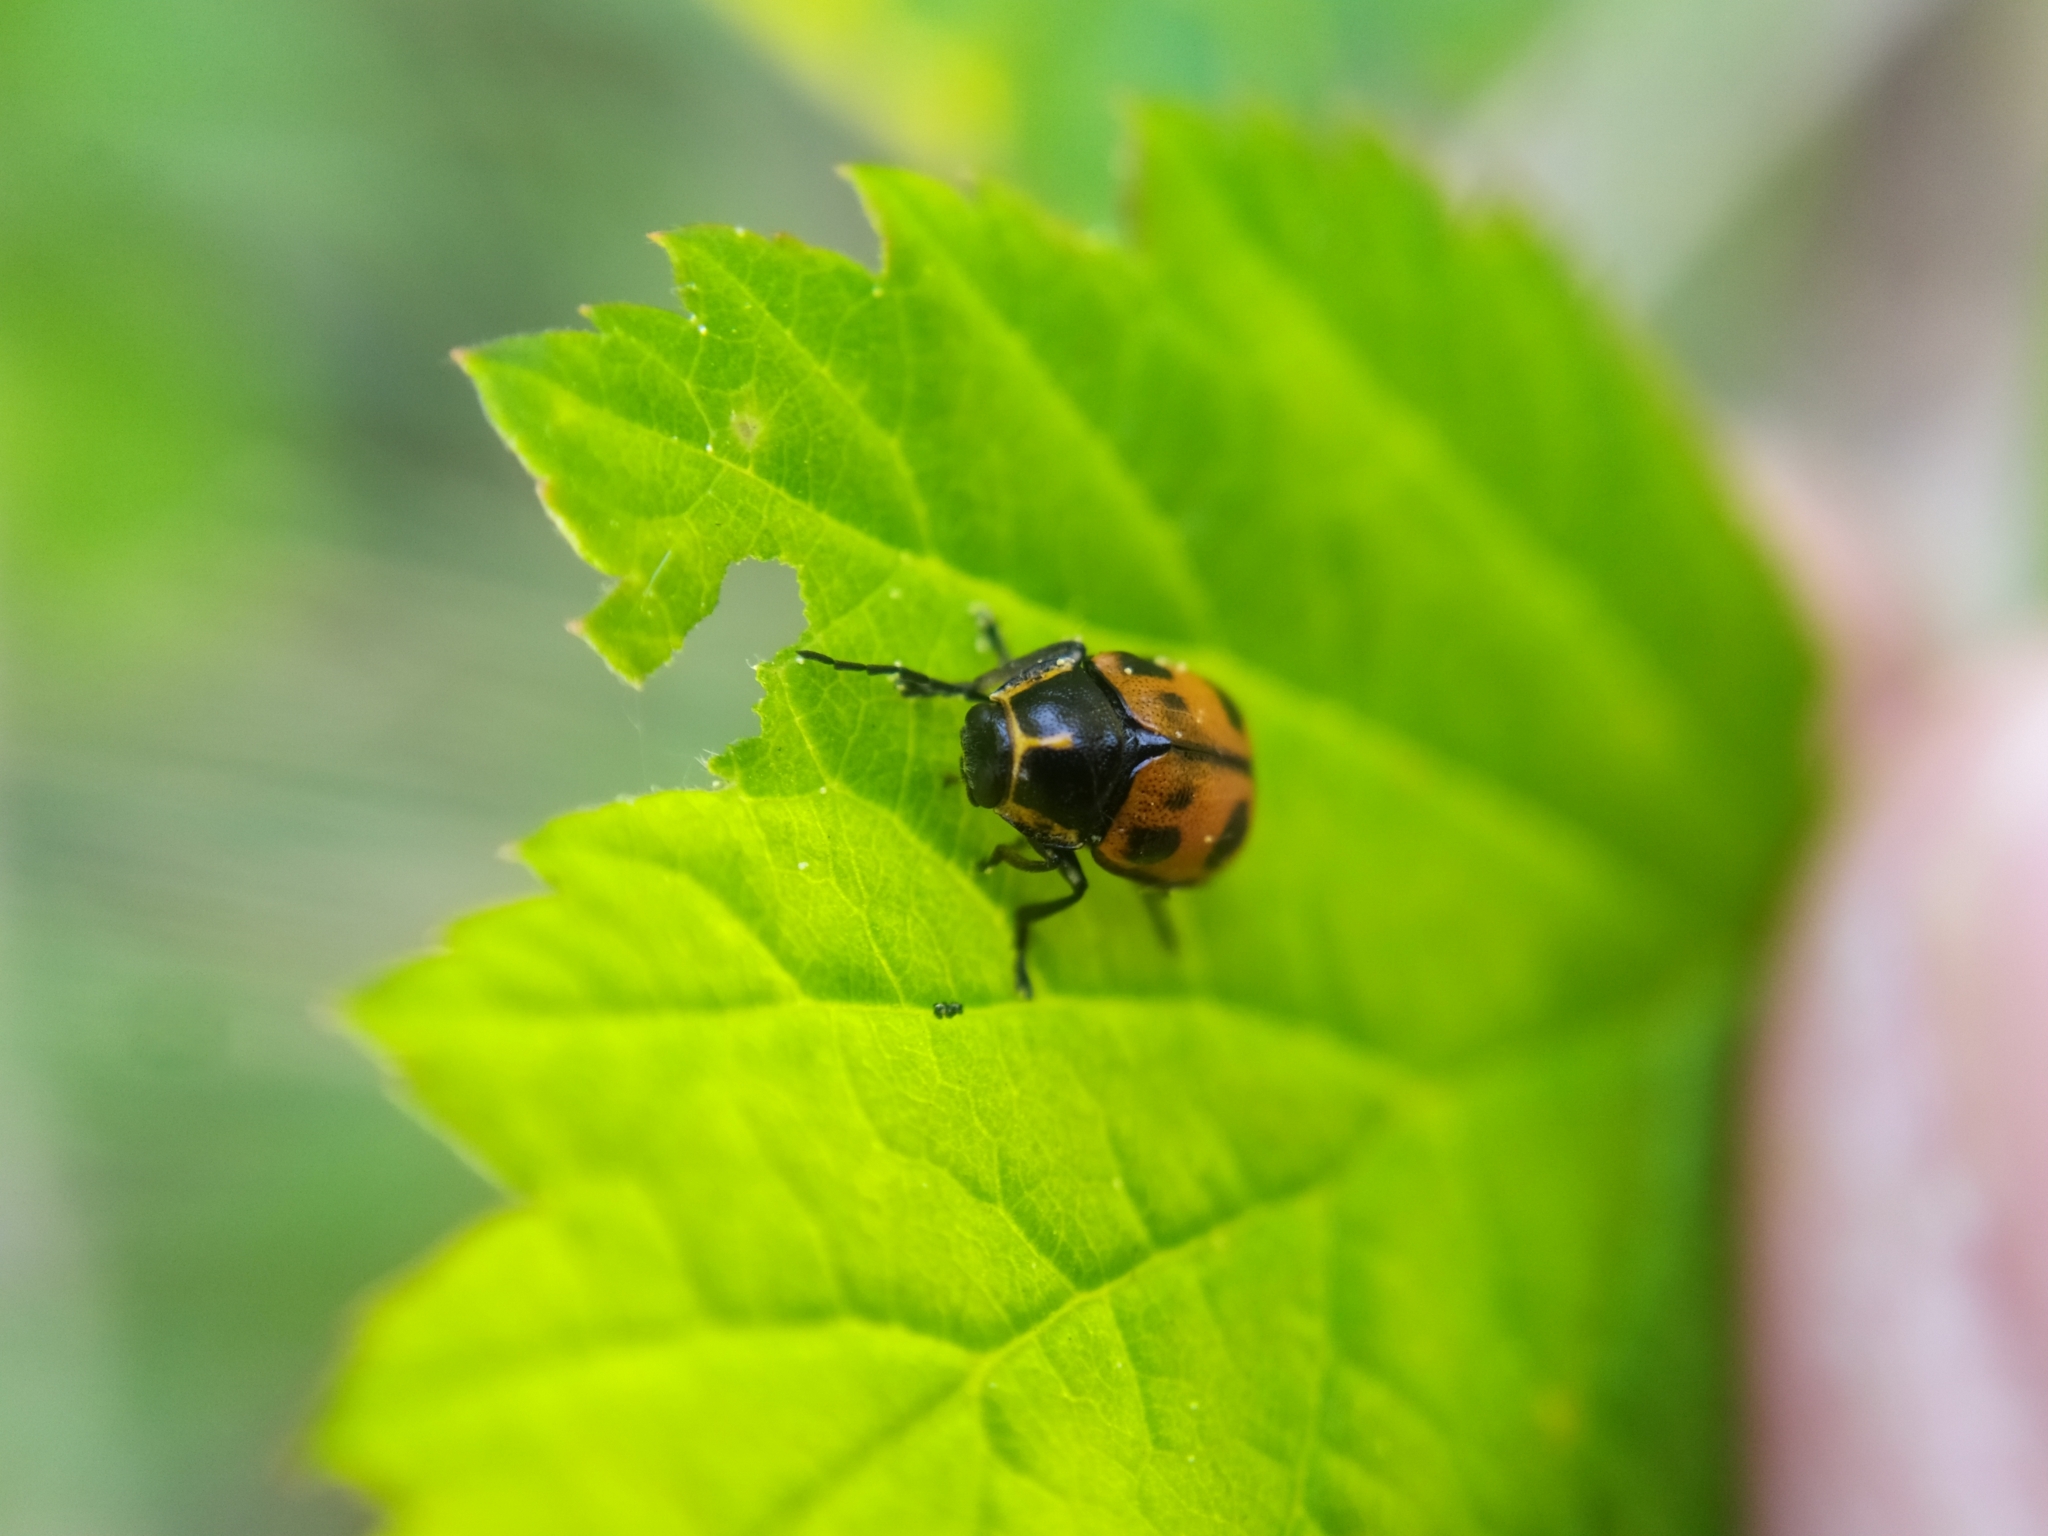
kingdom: Animalia
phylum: Arthropoda
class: Insecta
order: Coleoptera
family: Chrysomelidae
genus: Cryptocephalus
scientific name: Cryptocephalus sexpunctatus
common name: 6 spotted pot beetle
